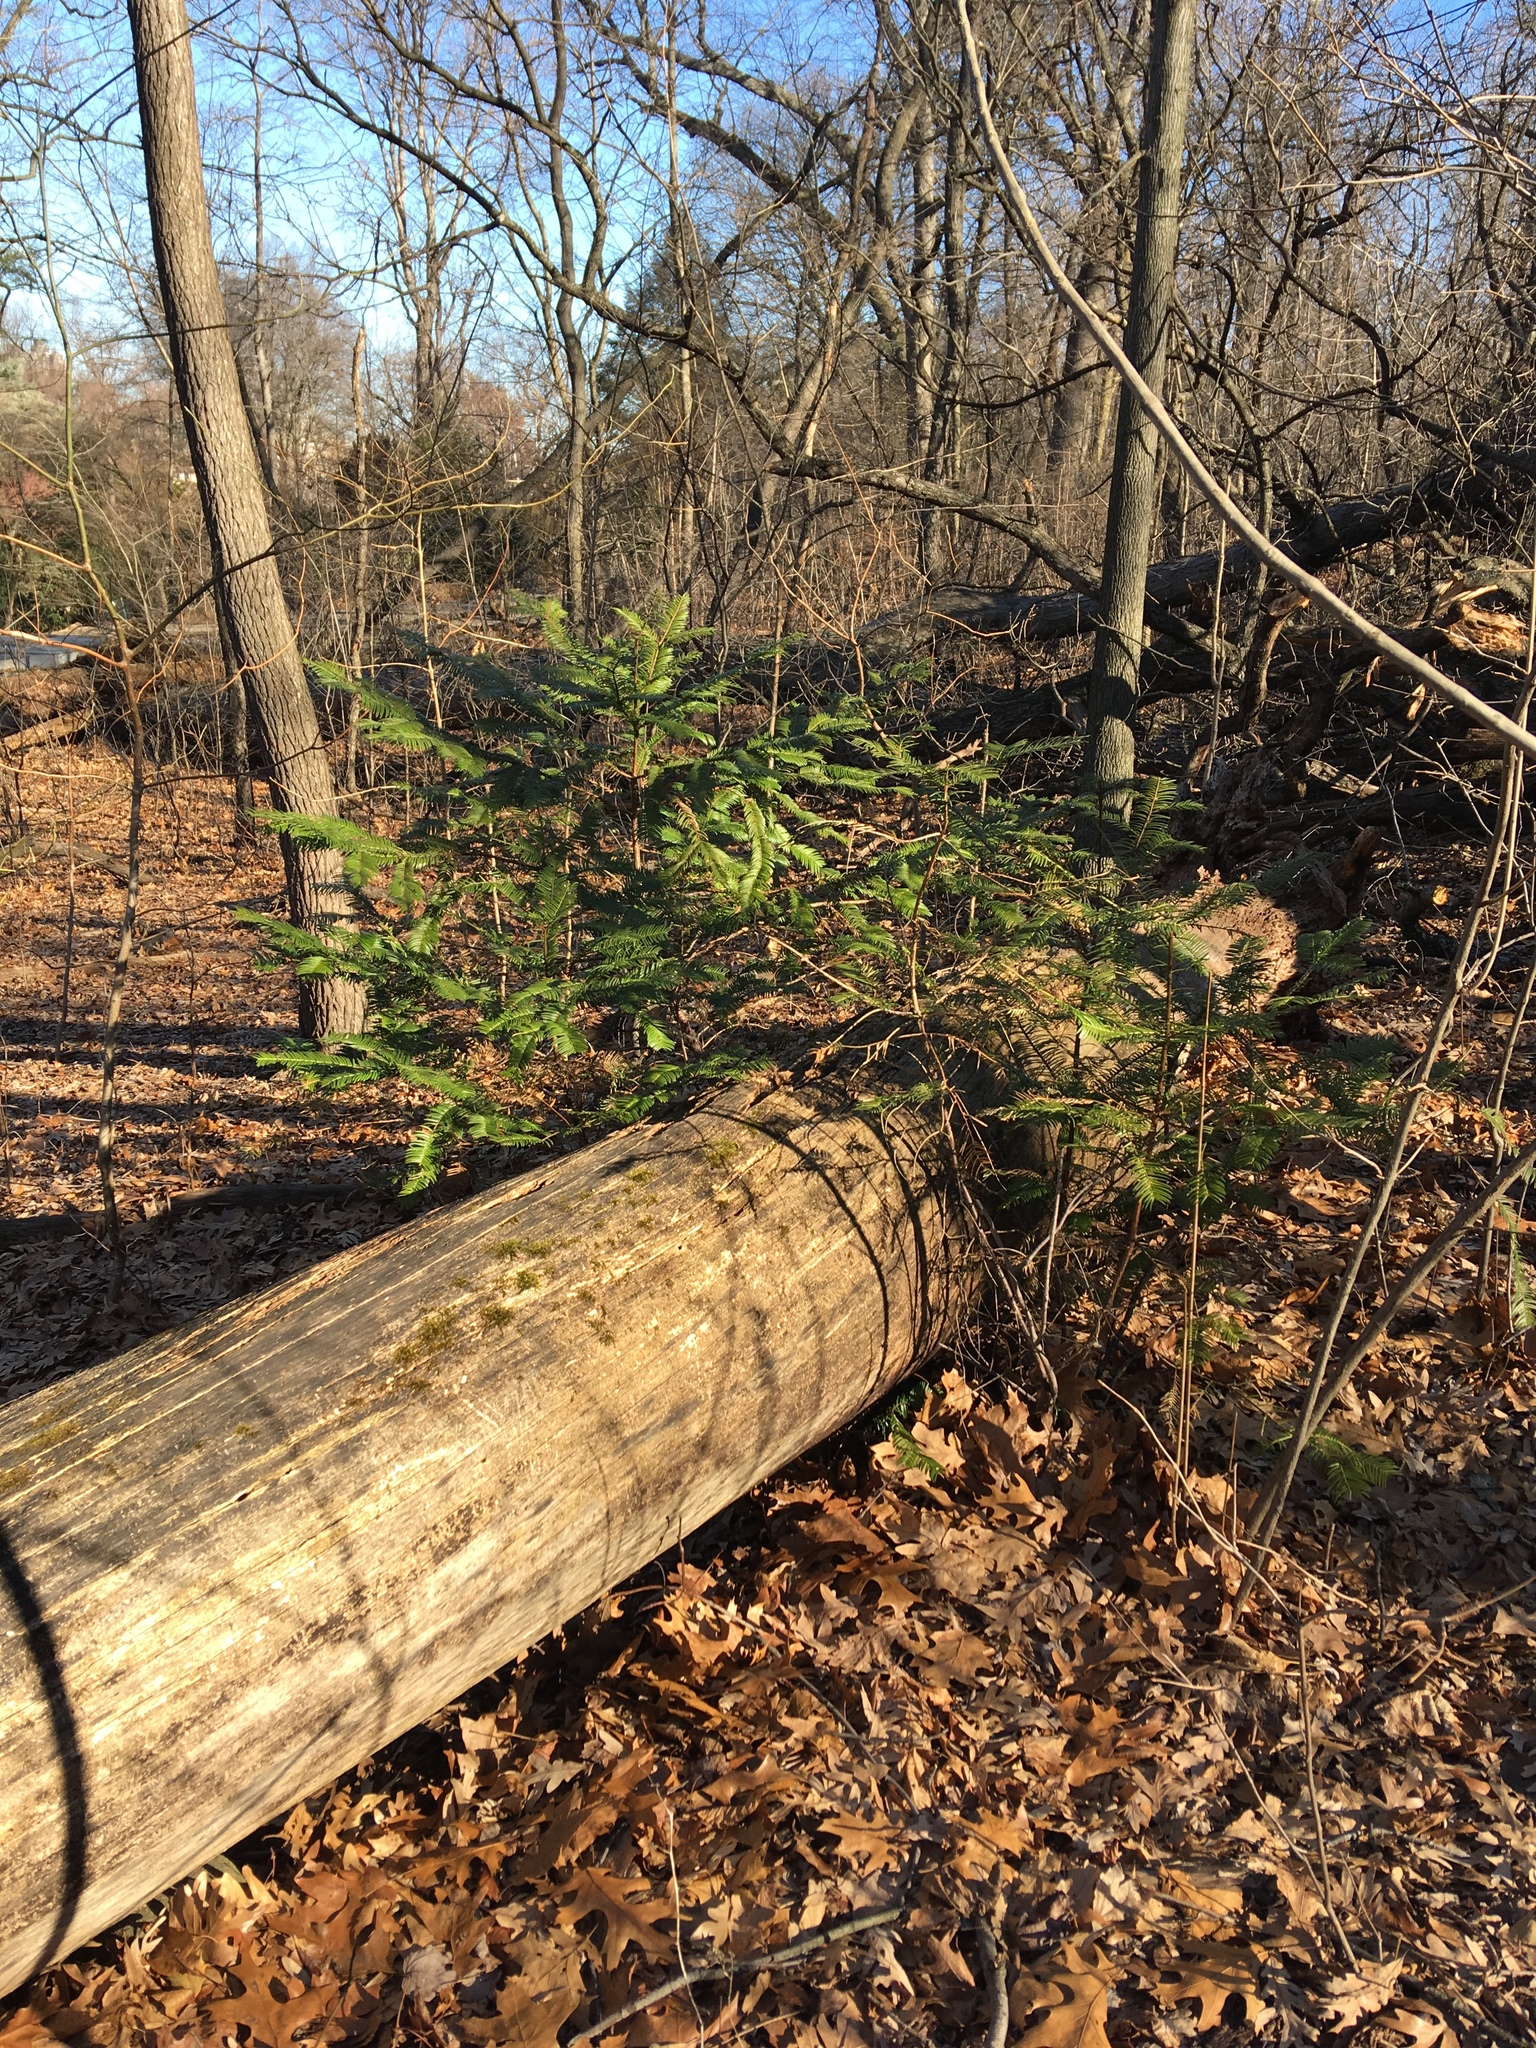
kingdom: Plantae
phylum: Tracheophyta
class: Pinopsida
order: Pinales
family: Cephalotaxaceae
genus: Cephalotaxus
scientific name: Cephalotaxus harringtonia
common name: Japanese plum-yew
